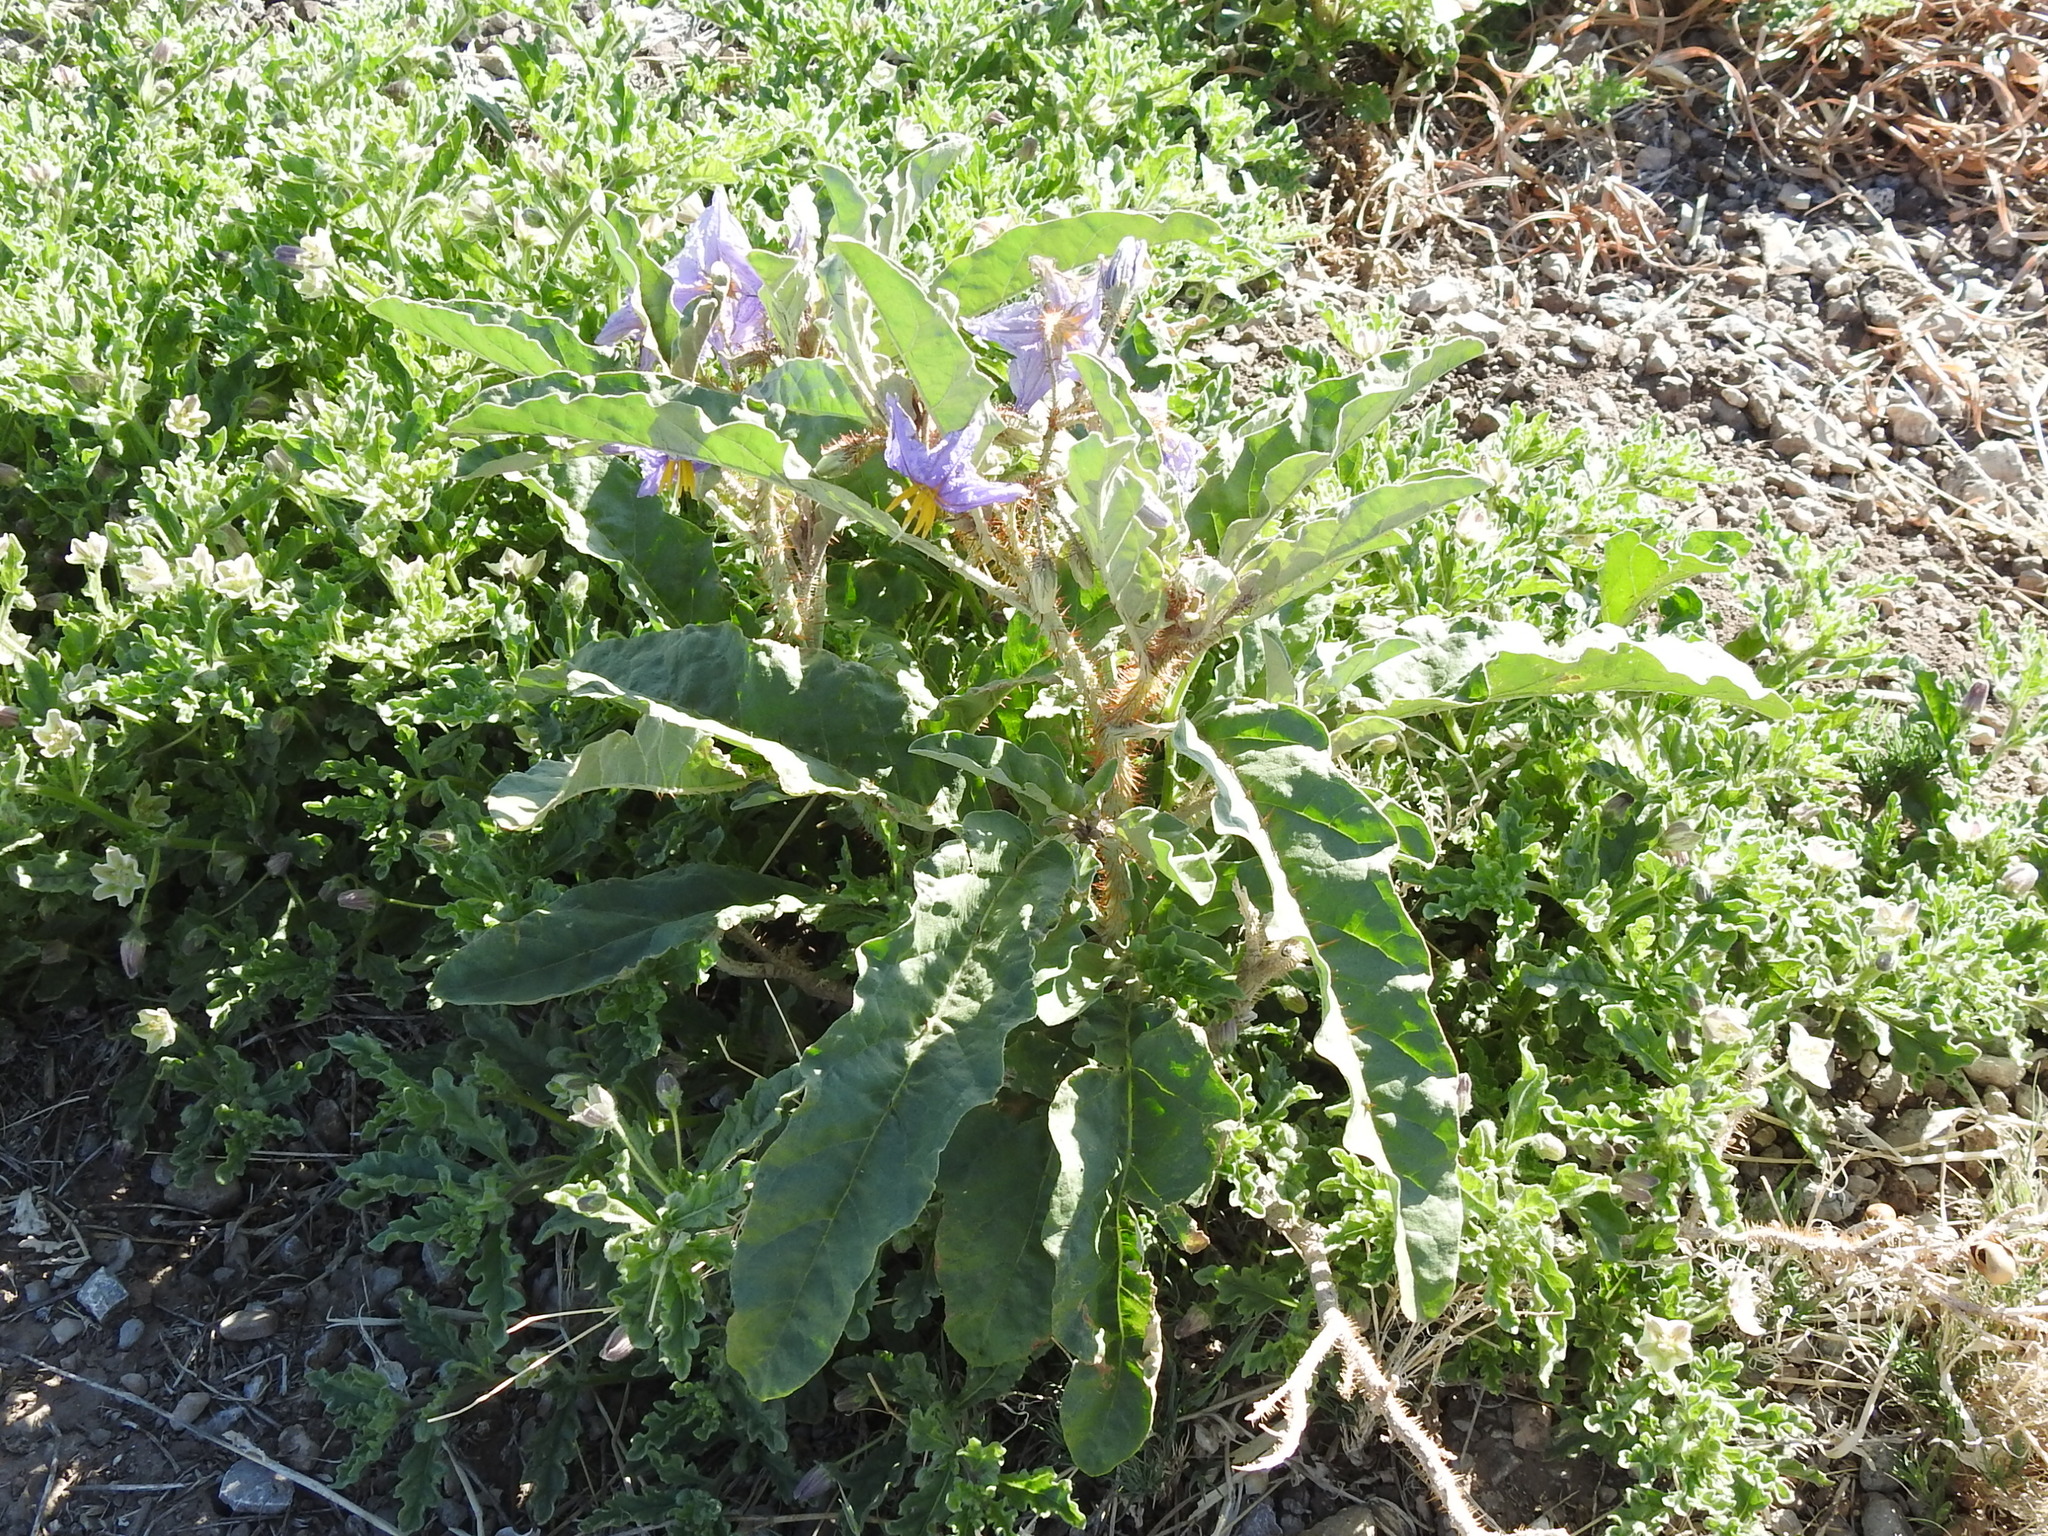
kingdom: Plantae
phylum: Tracheophyta
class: Magnoliopsida
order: Solanales
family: Solanaceae
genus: Solanum
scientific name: Solanum elaeagnifolium
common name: Silverleaf nightshade
